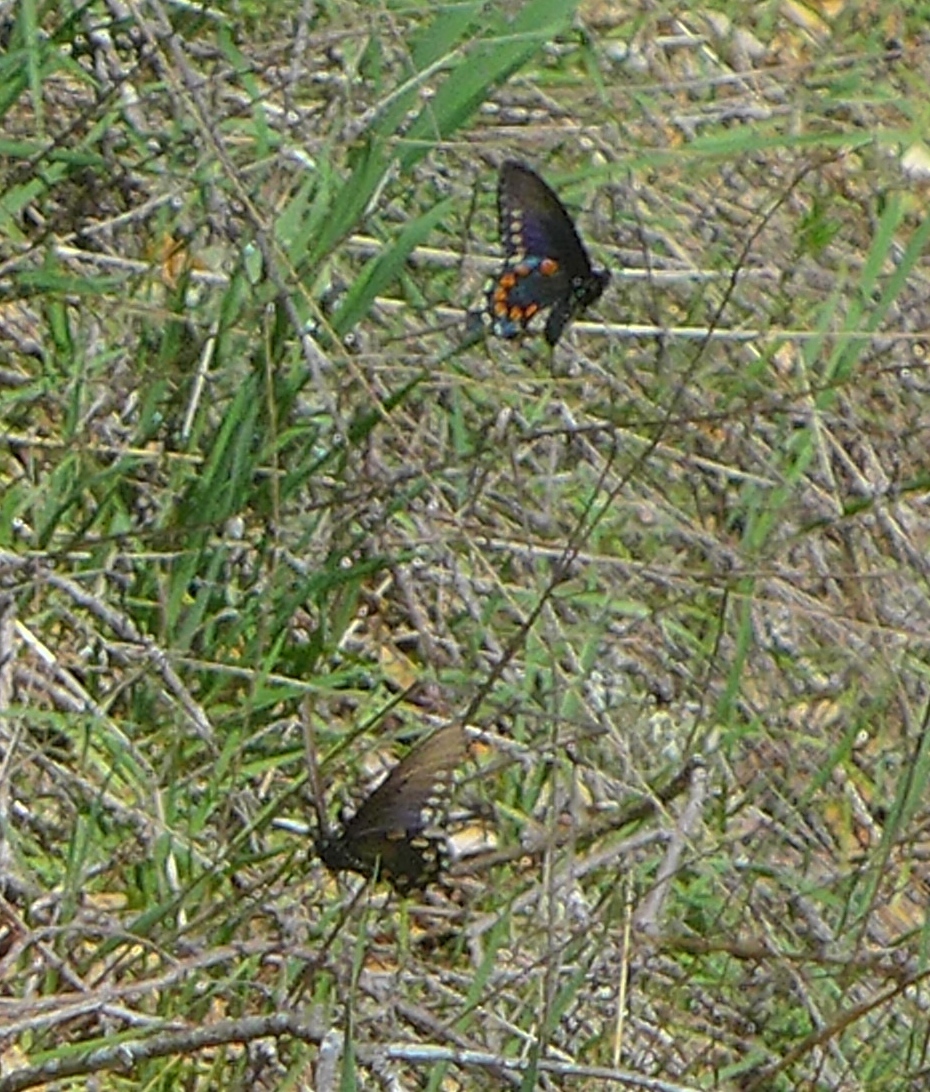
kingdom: Animalia
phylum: Arthropoda
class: Insecta
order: Lepidoptera
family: Papilionidae
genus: Battus
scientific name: Battus philenor
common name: Pipevine swallowtail
